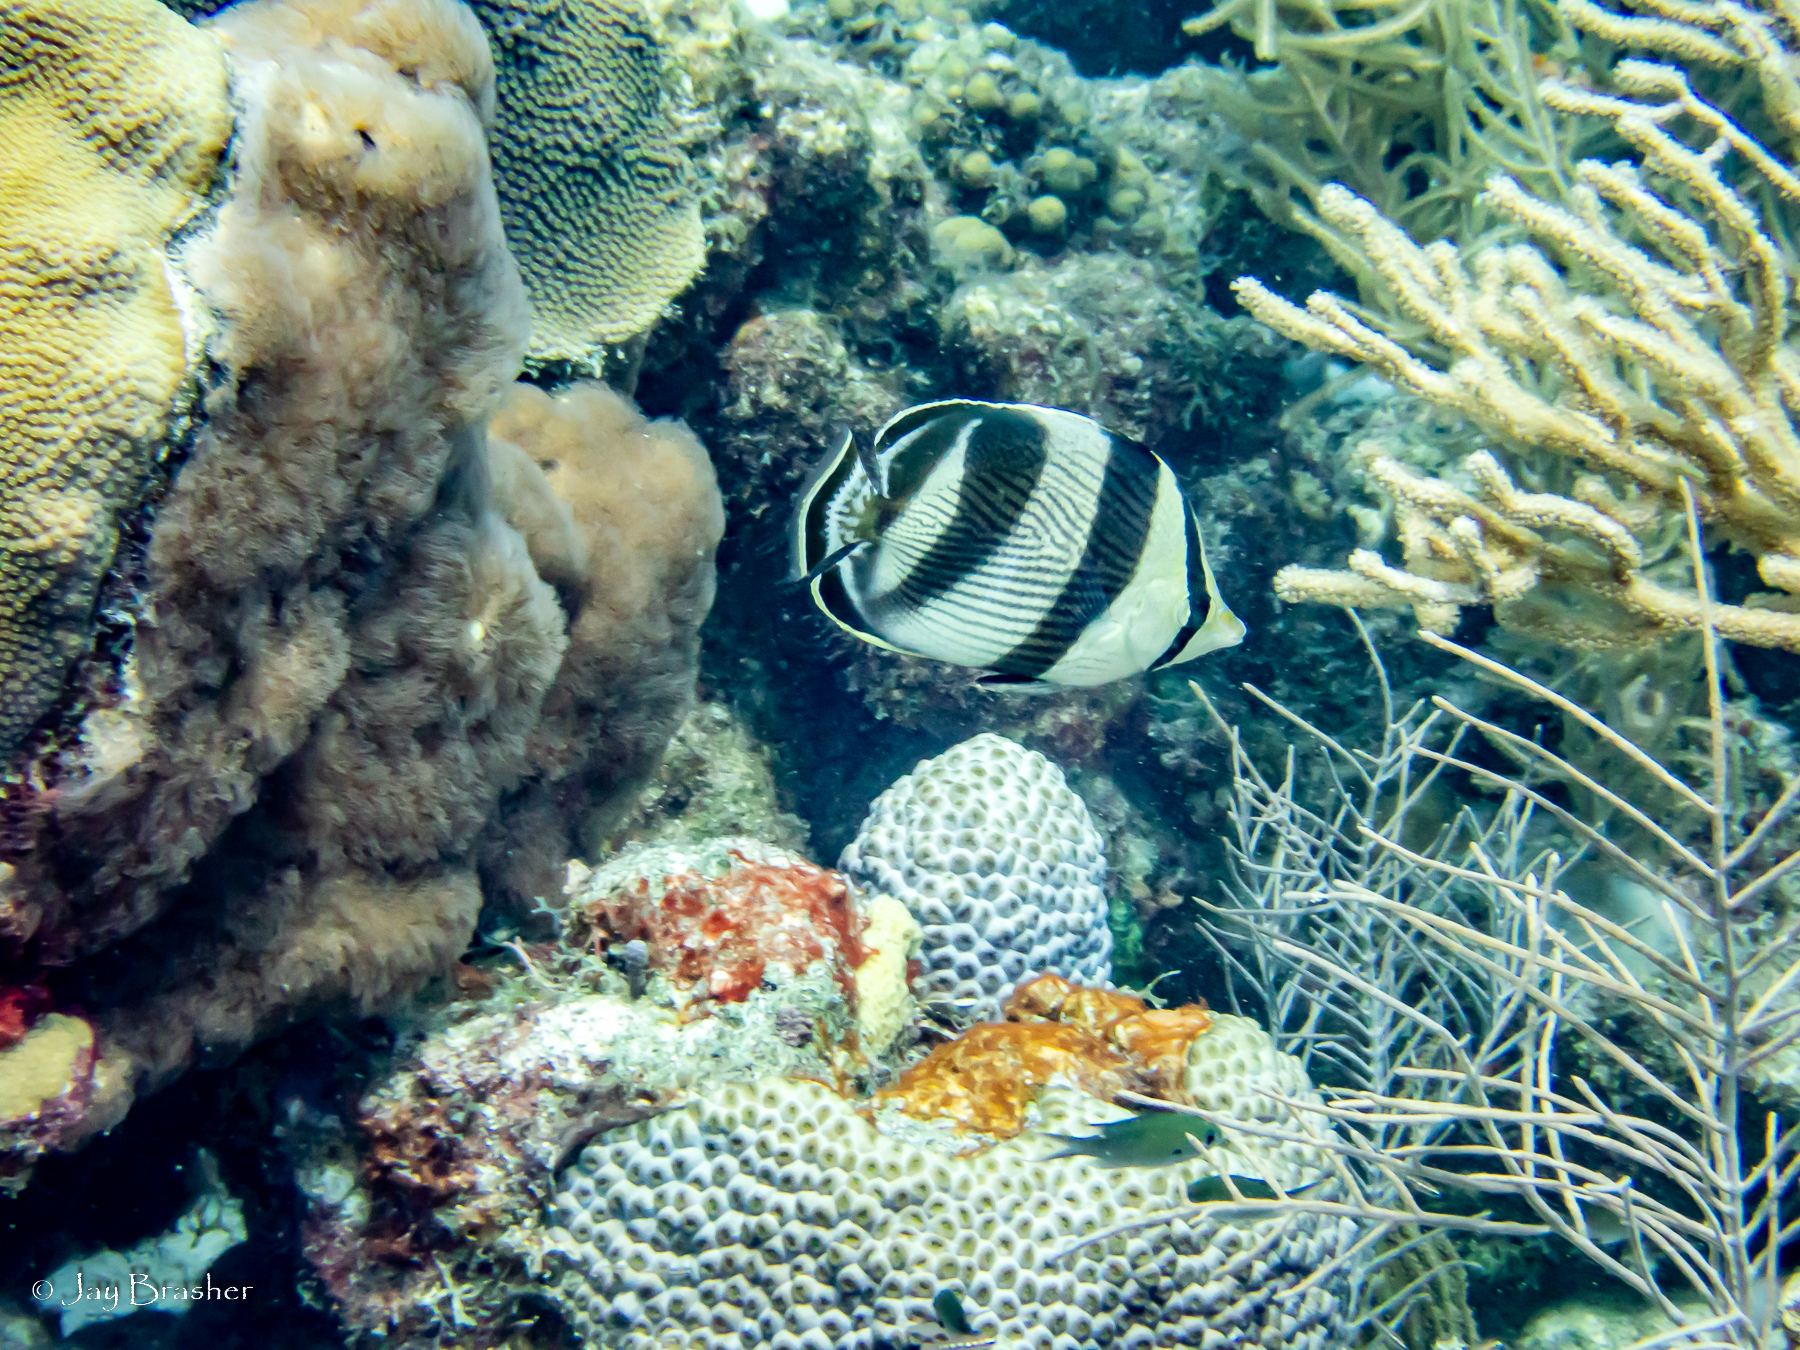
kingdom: Animalia
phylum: Cnidaria
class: Anthozoa
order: Scleractinia
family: Montastraeidae
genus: Montastraea
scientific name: Montastraea cavernosa
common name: Great star coral
